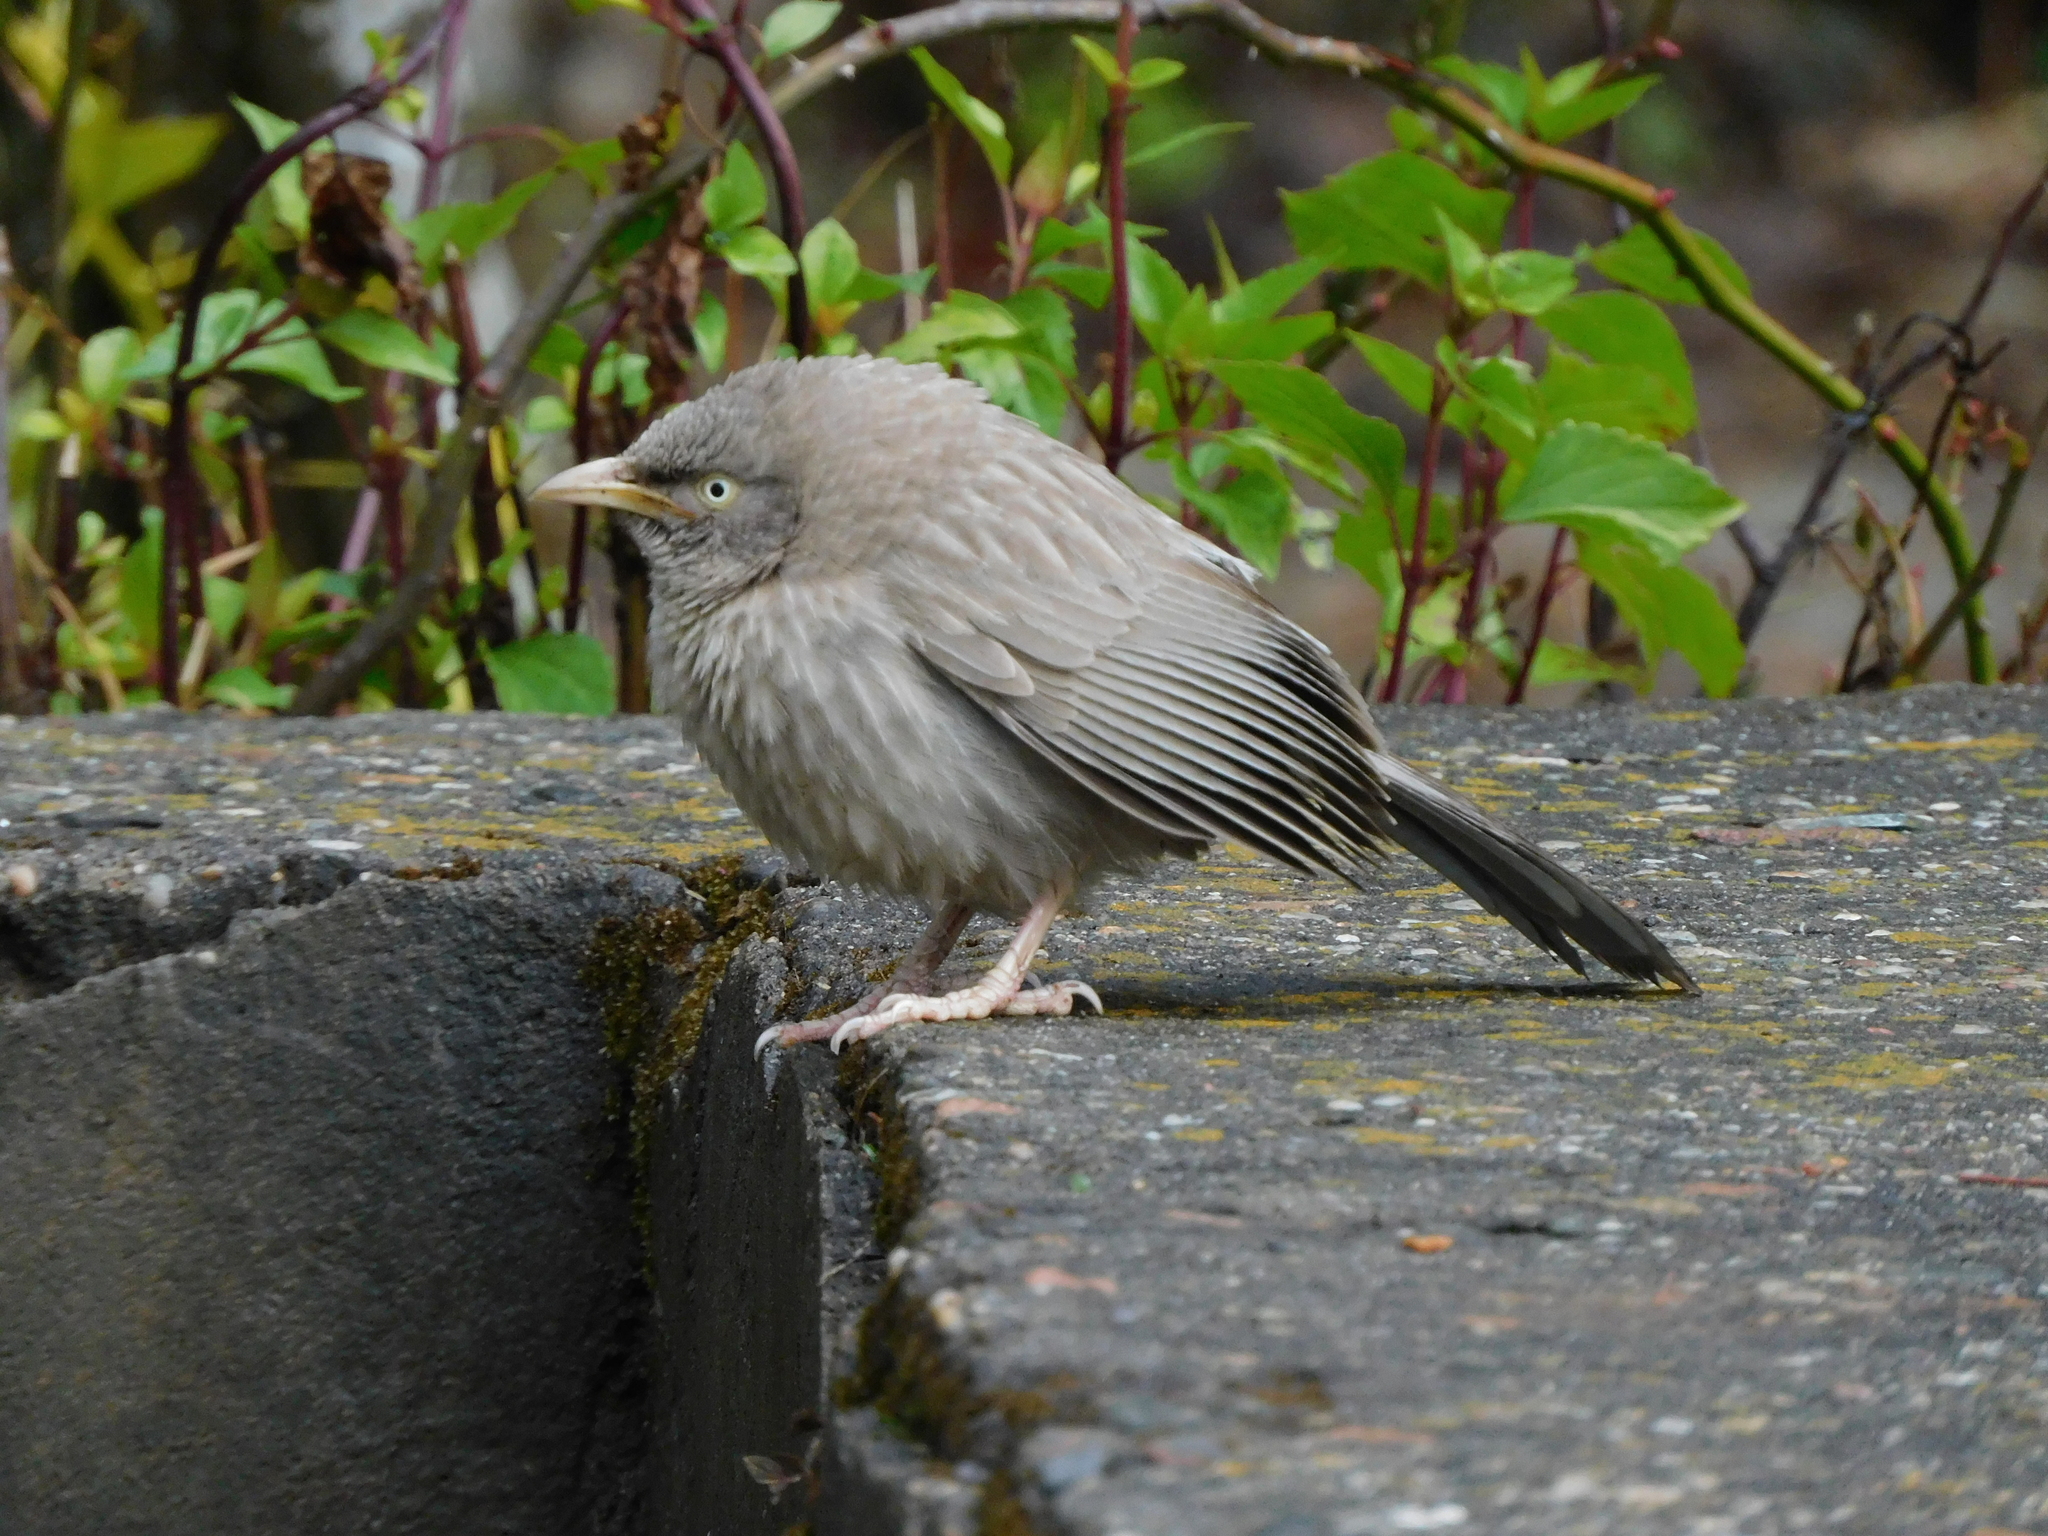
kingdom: Animalia
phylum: Chordata
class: Aves
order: Passeriformes
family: Leiothrichidae
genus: Turdoides
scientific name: Turdoides striata
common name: Jungle babbler
